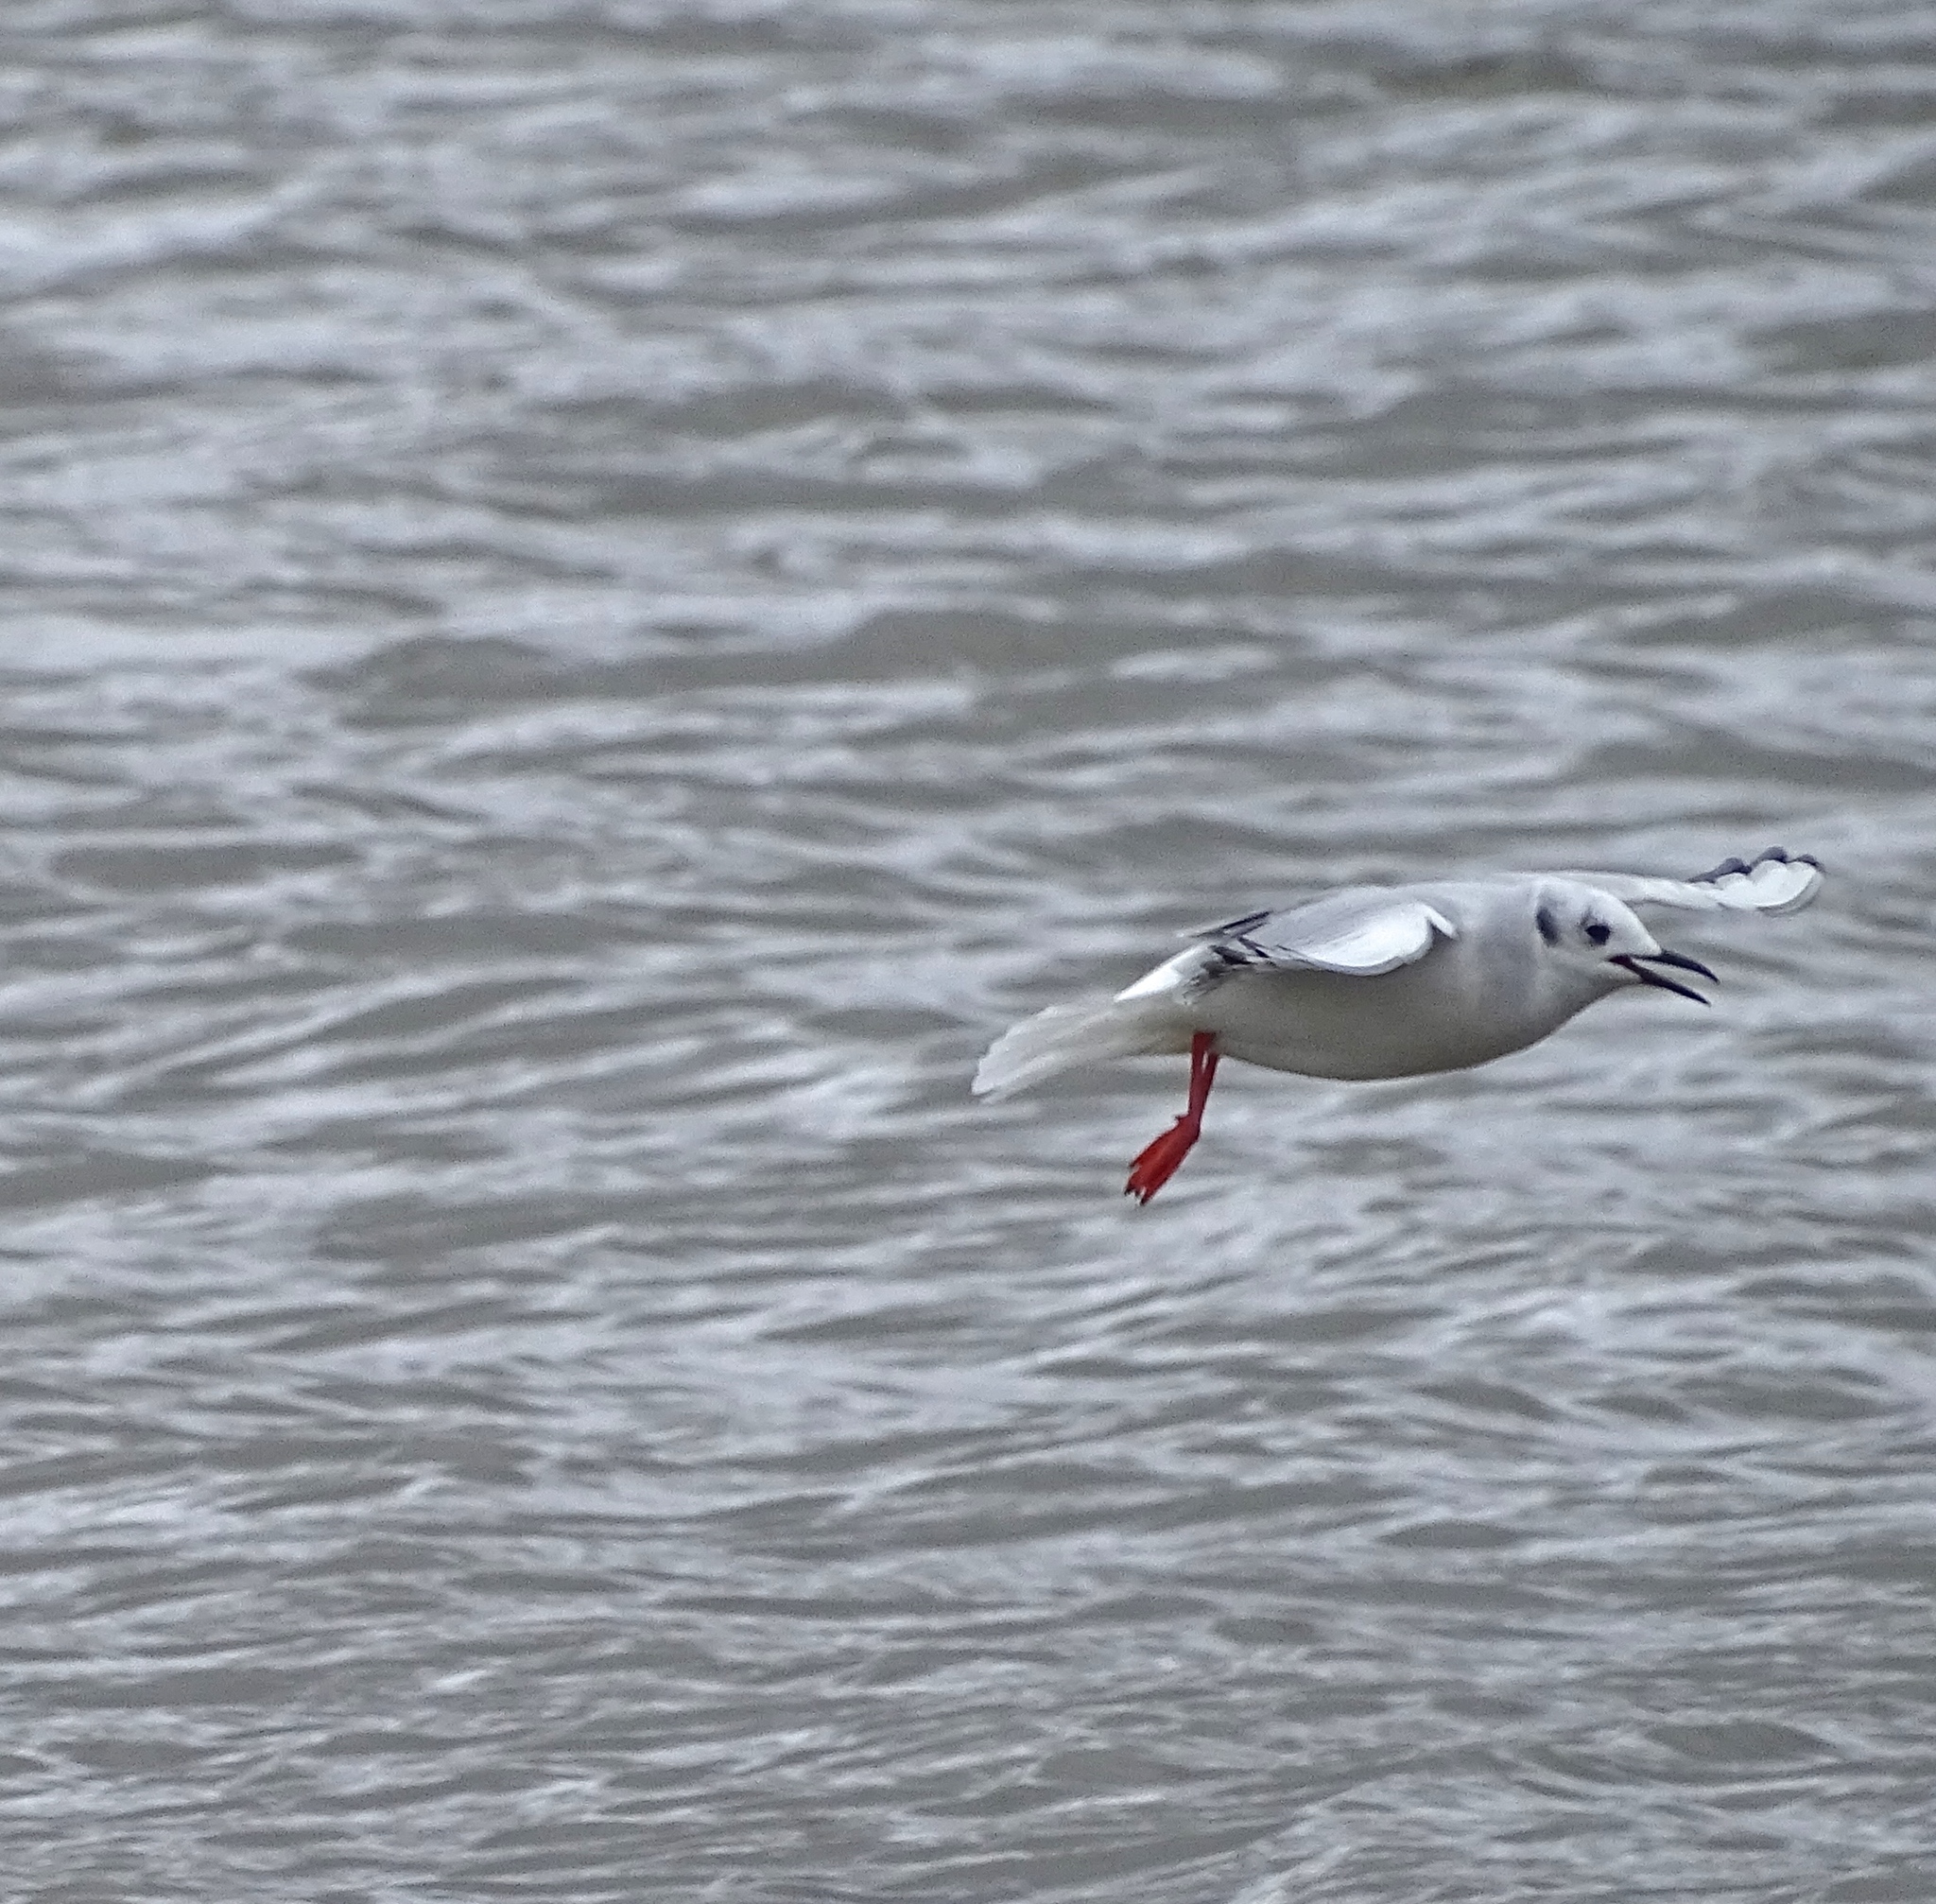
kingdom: Animalia
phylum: Chordata
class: Aves
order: Charadriiformes
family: Laridae
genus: Chroicocephalus
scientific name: Chroicocephalus philadelphia
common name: Bonaparte's gull
